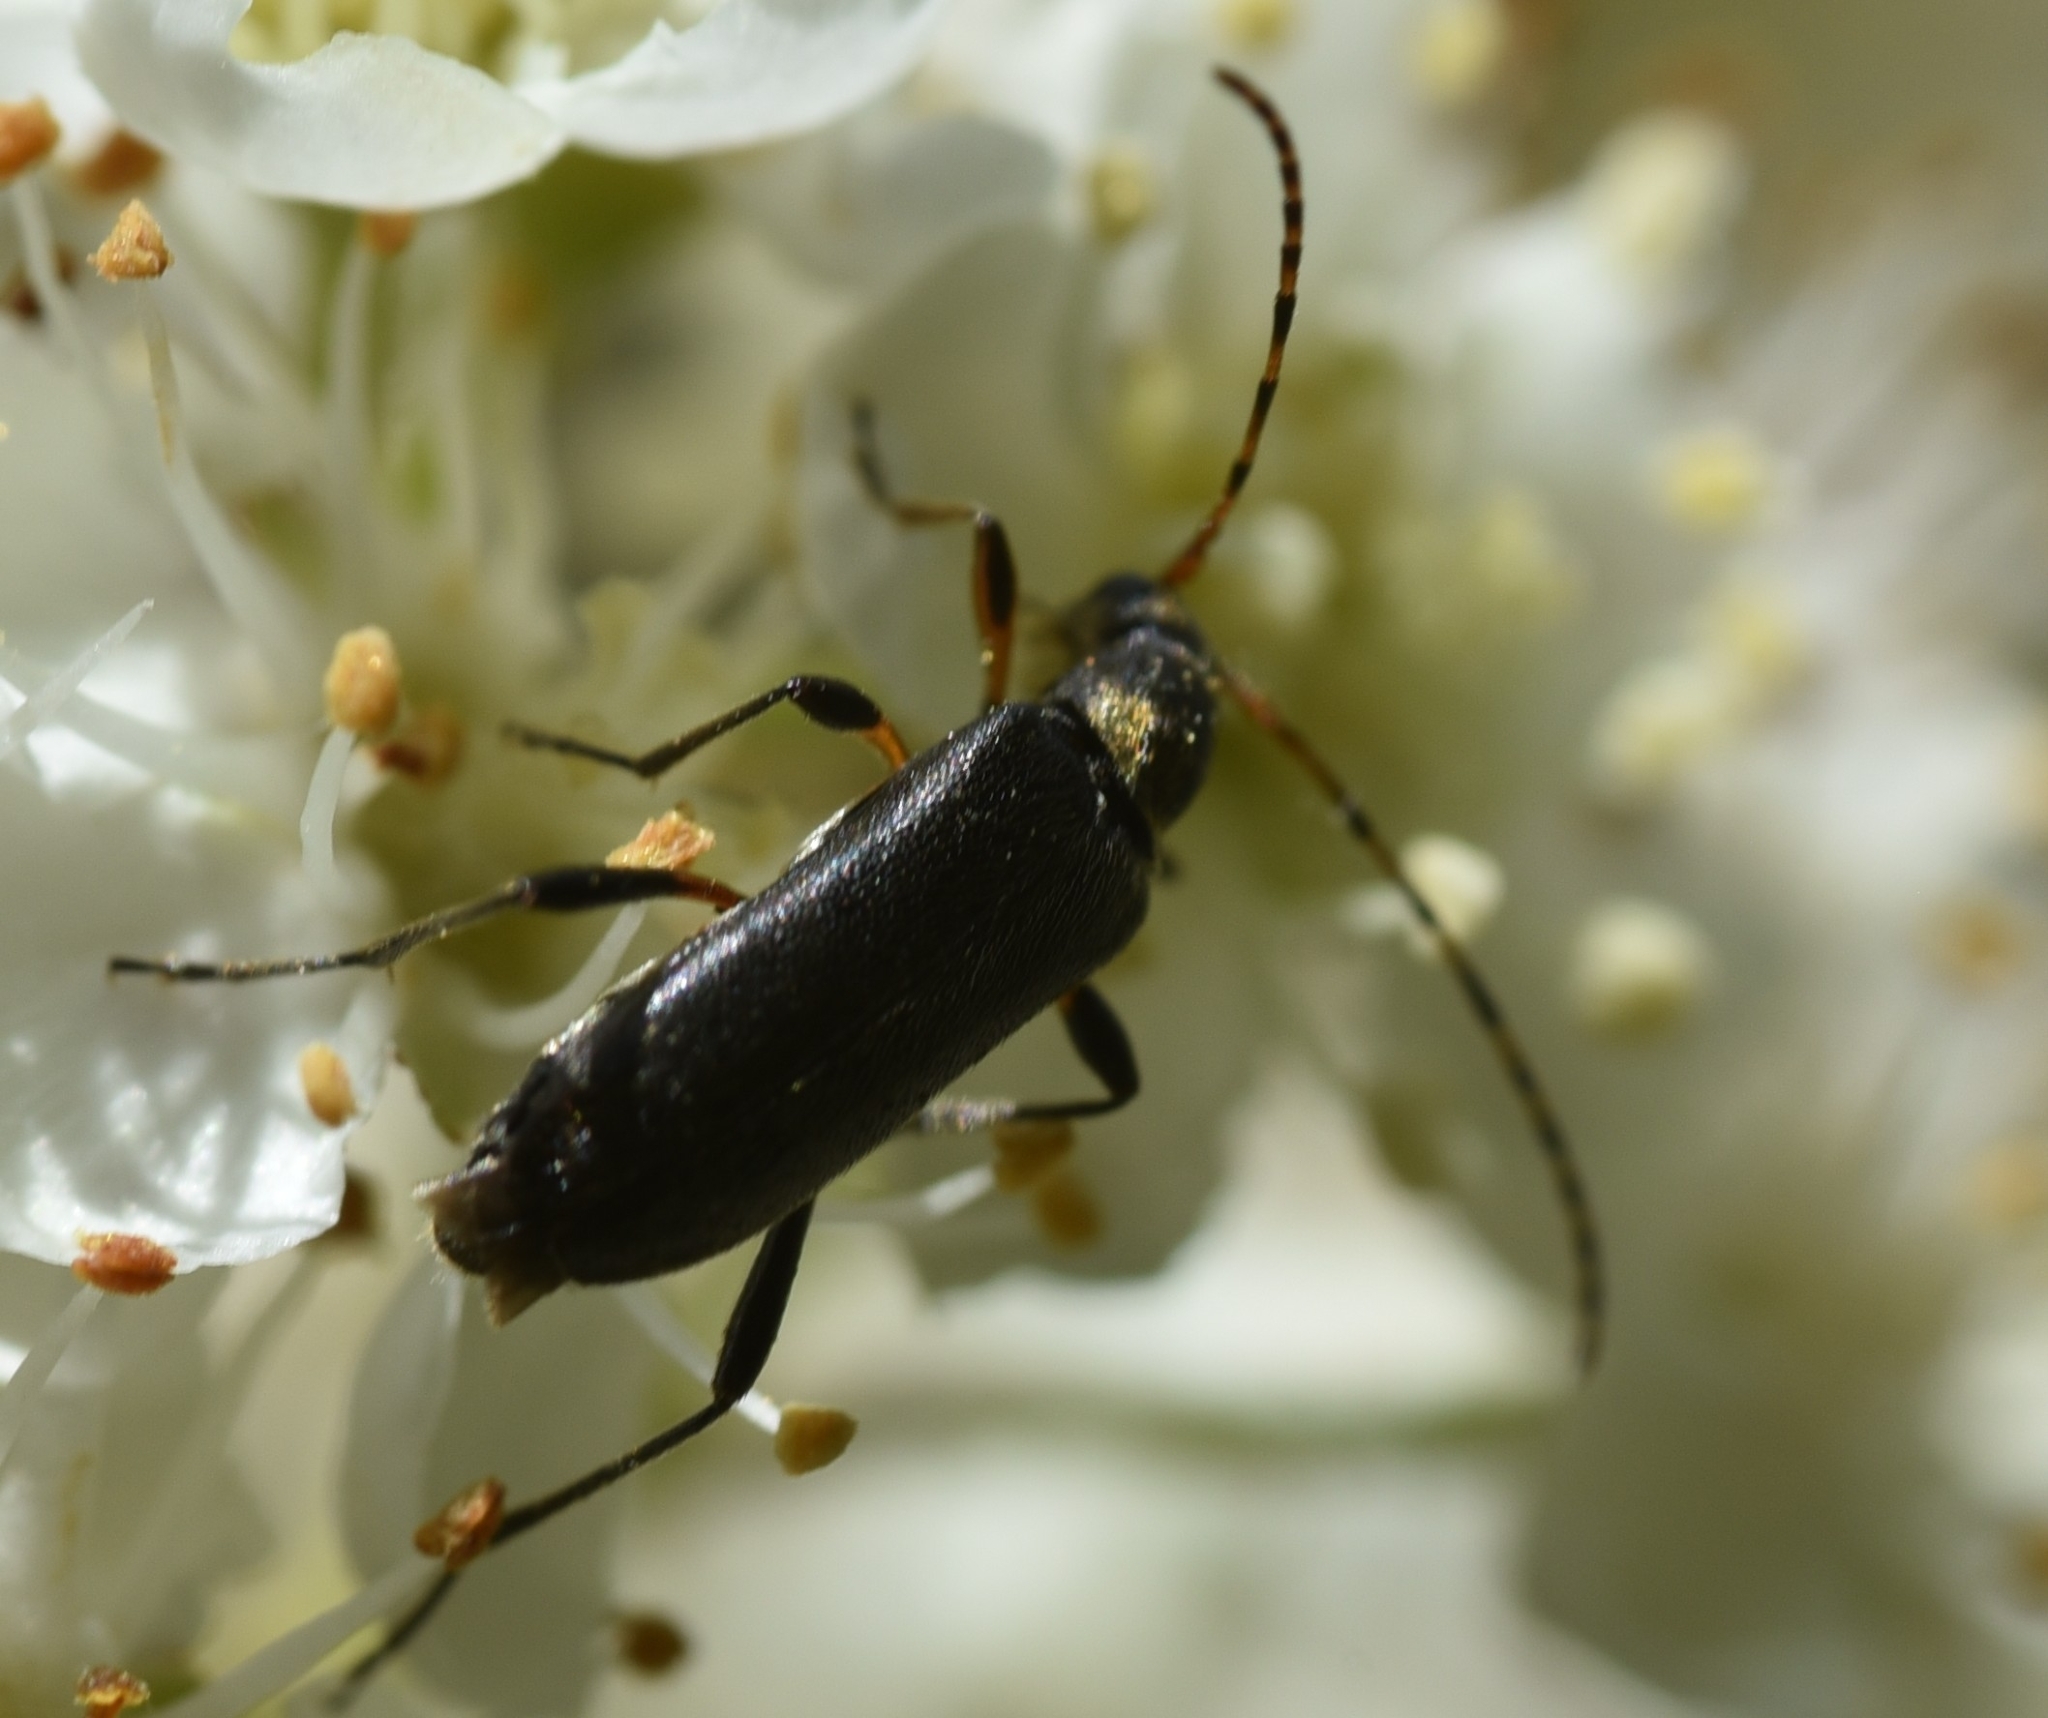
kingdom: Animalia
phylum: Arthropoda
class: Insecta
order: Coleoptera
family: Cerambycidae
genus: Grammoptera
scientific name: Grammoptera ruficornis
